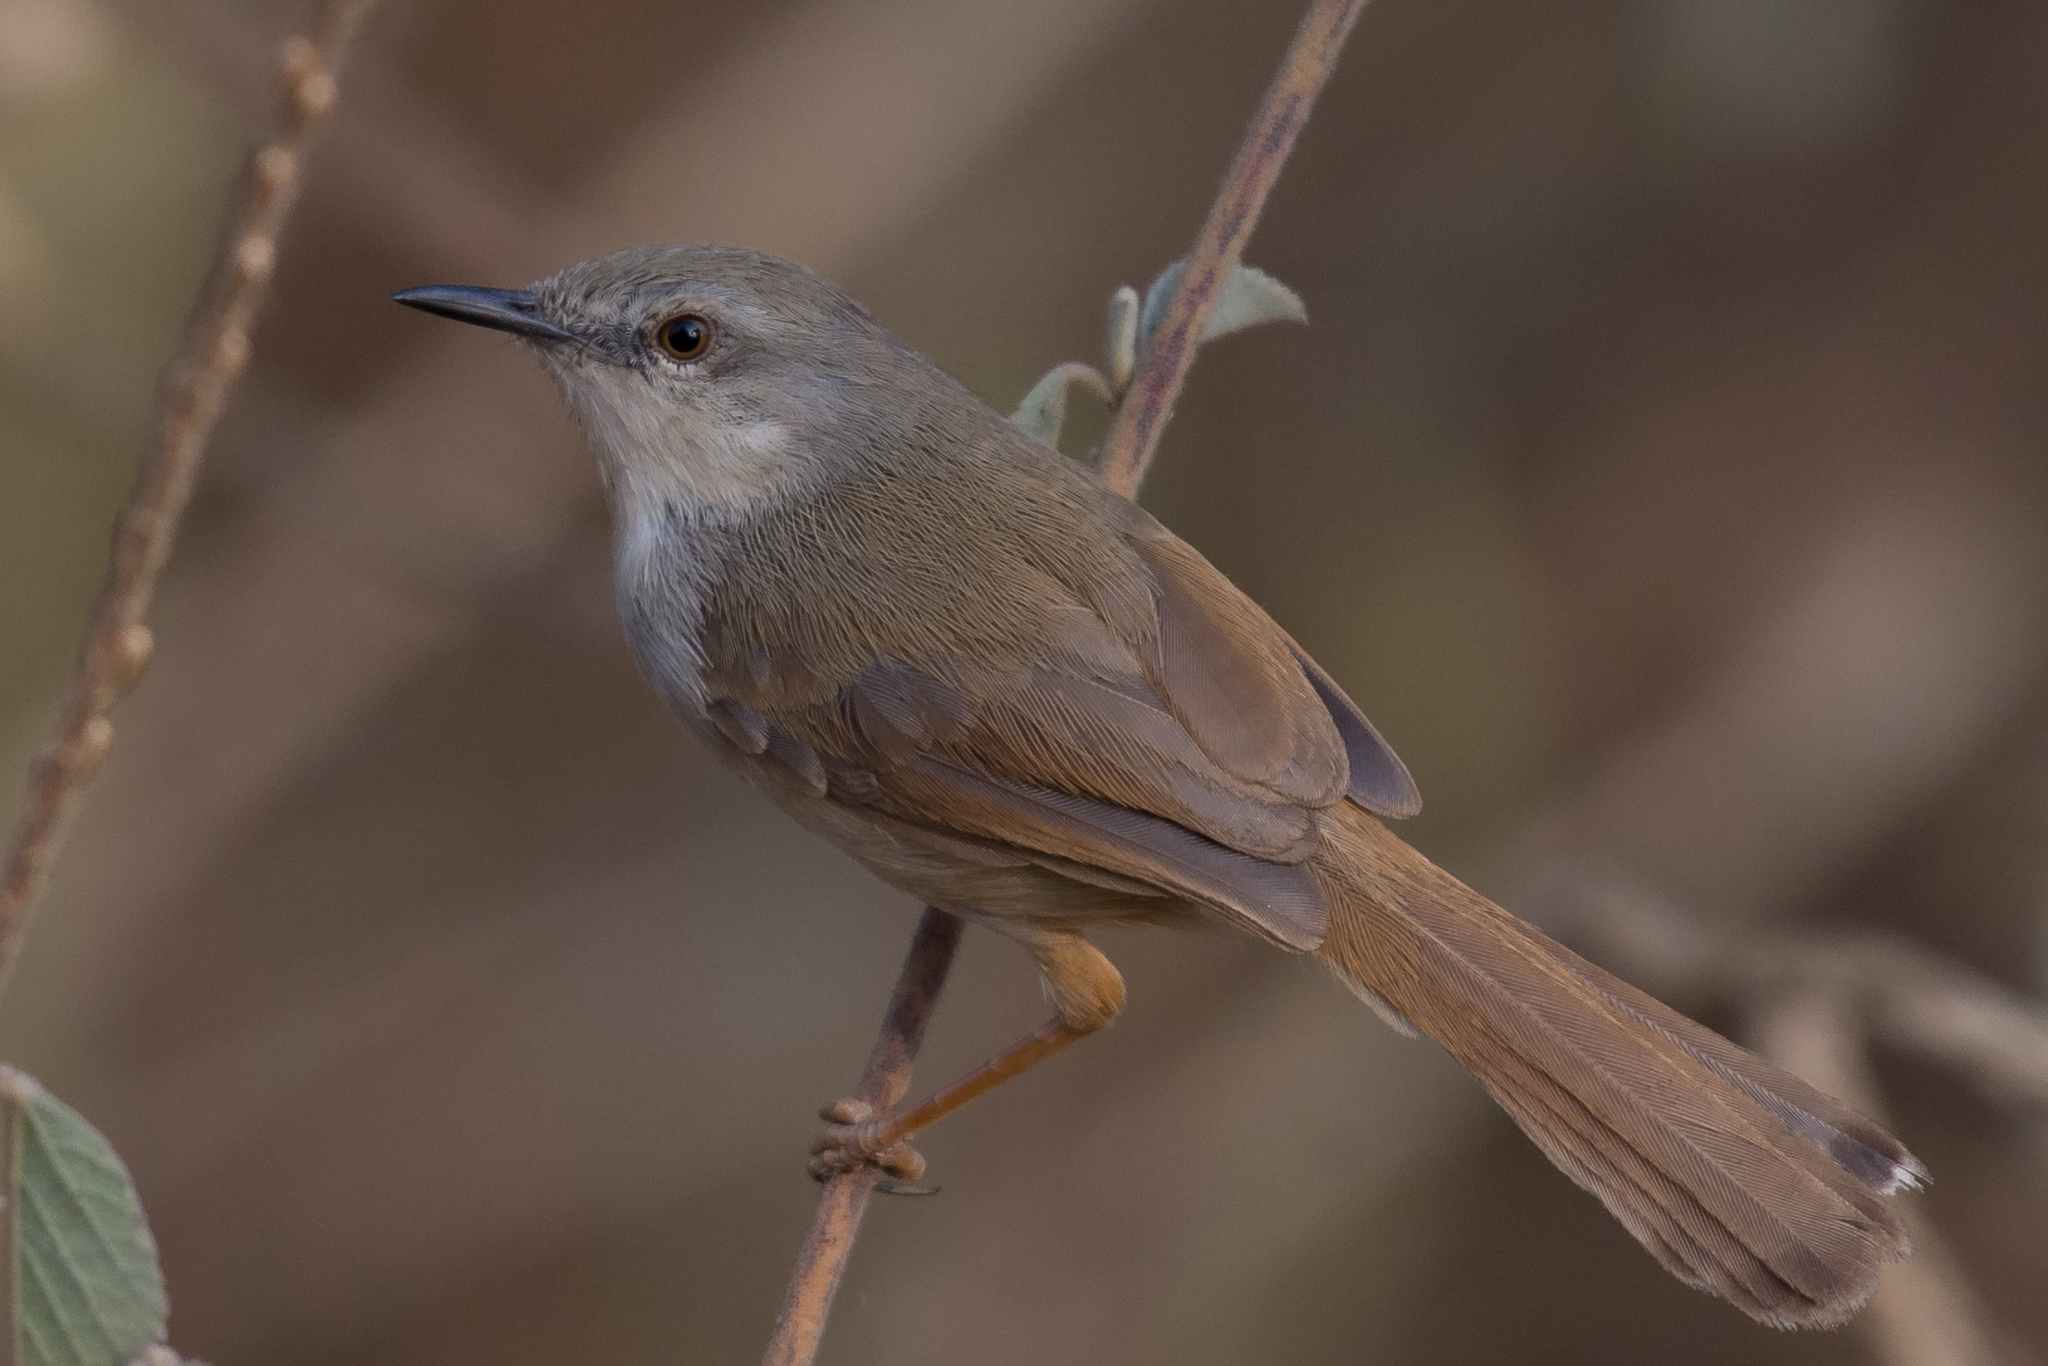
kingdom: Animalia
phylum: Chordata
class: Aves
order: Passeriformes
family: Cisticolidae
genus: Prinia
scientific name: Prinia rufescens
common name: Rufescent prinia
